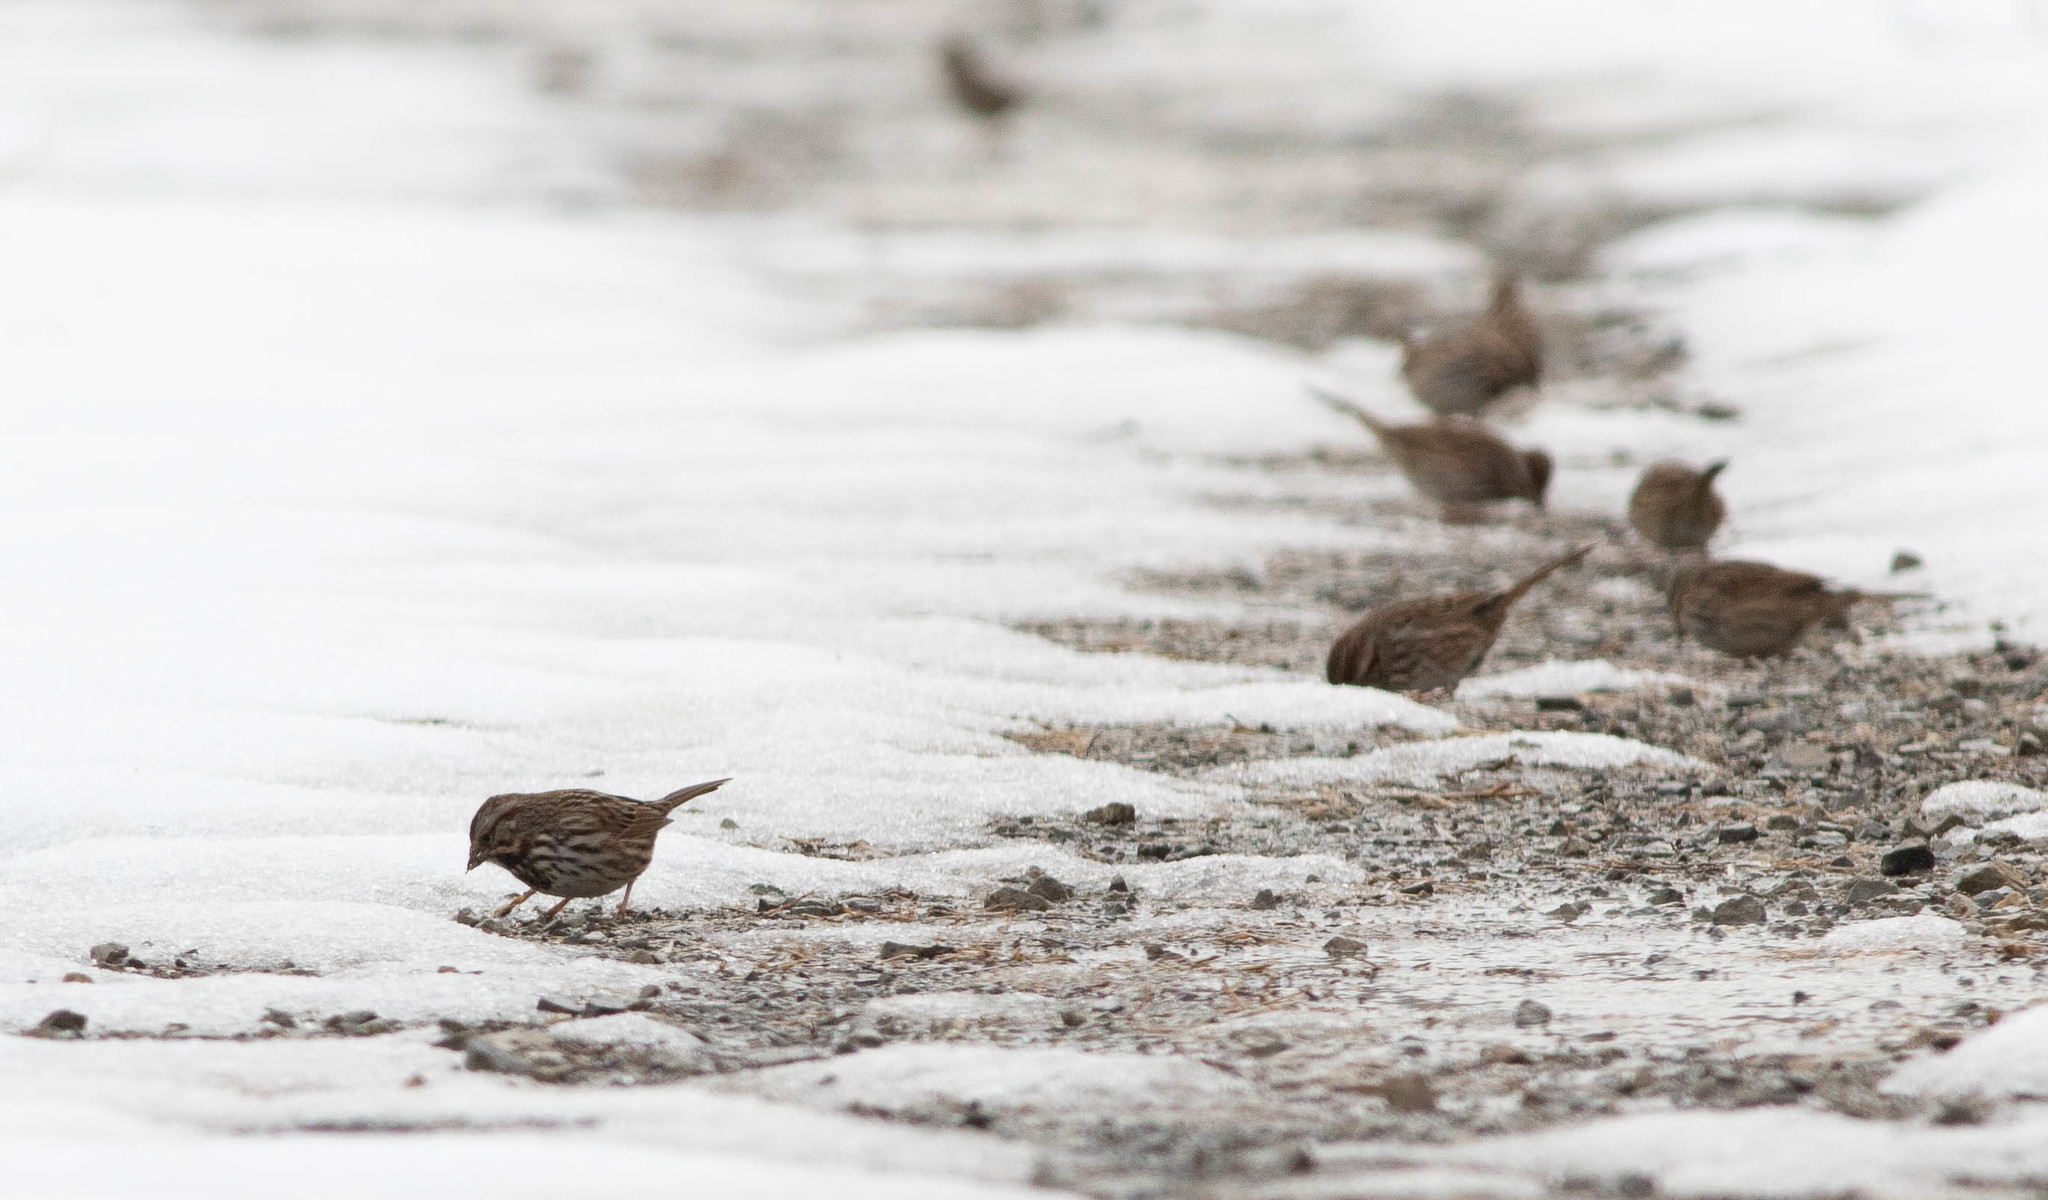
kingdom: Animalia
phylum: Chordata
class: Aves
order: Passeriformes
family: Passerellidae
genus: Melospiza
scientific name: Melospiza melodia
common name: Song sparrow
